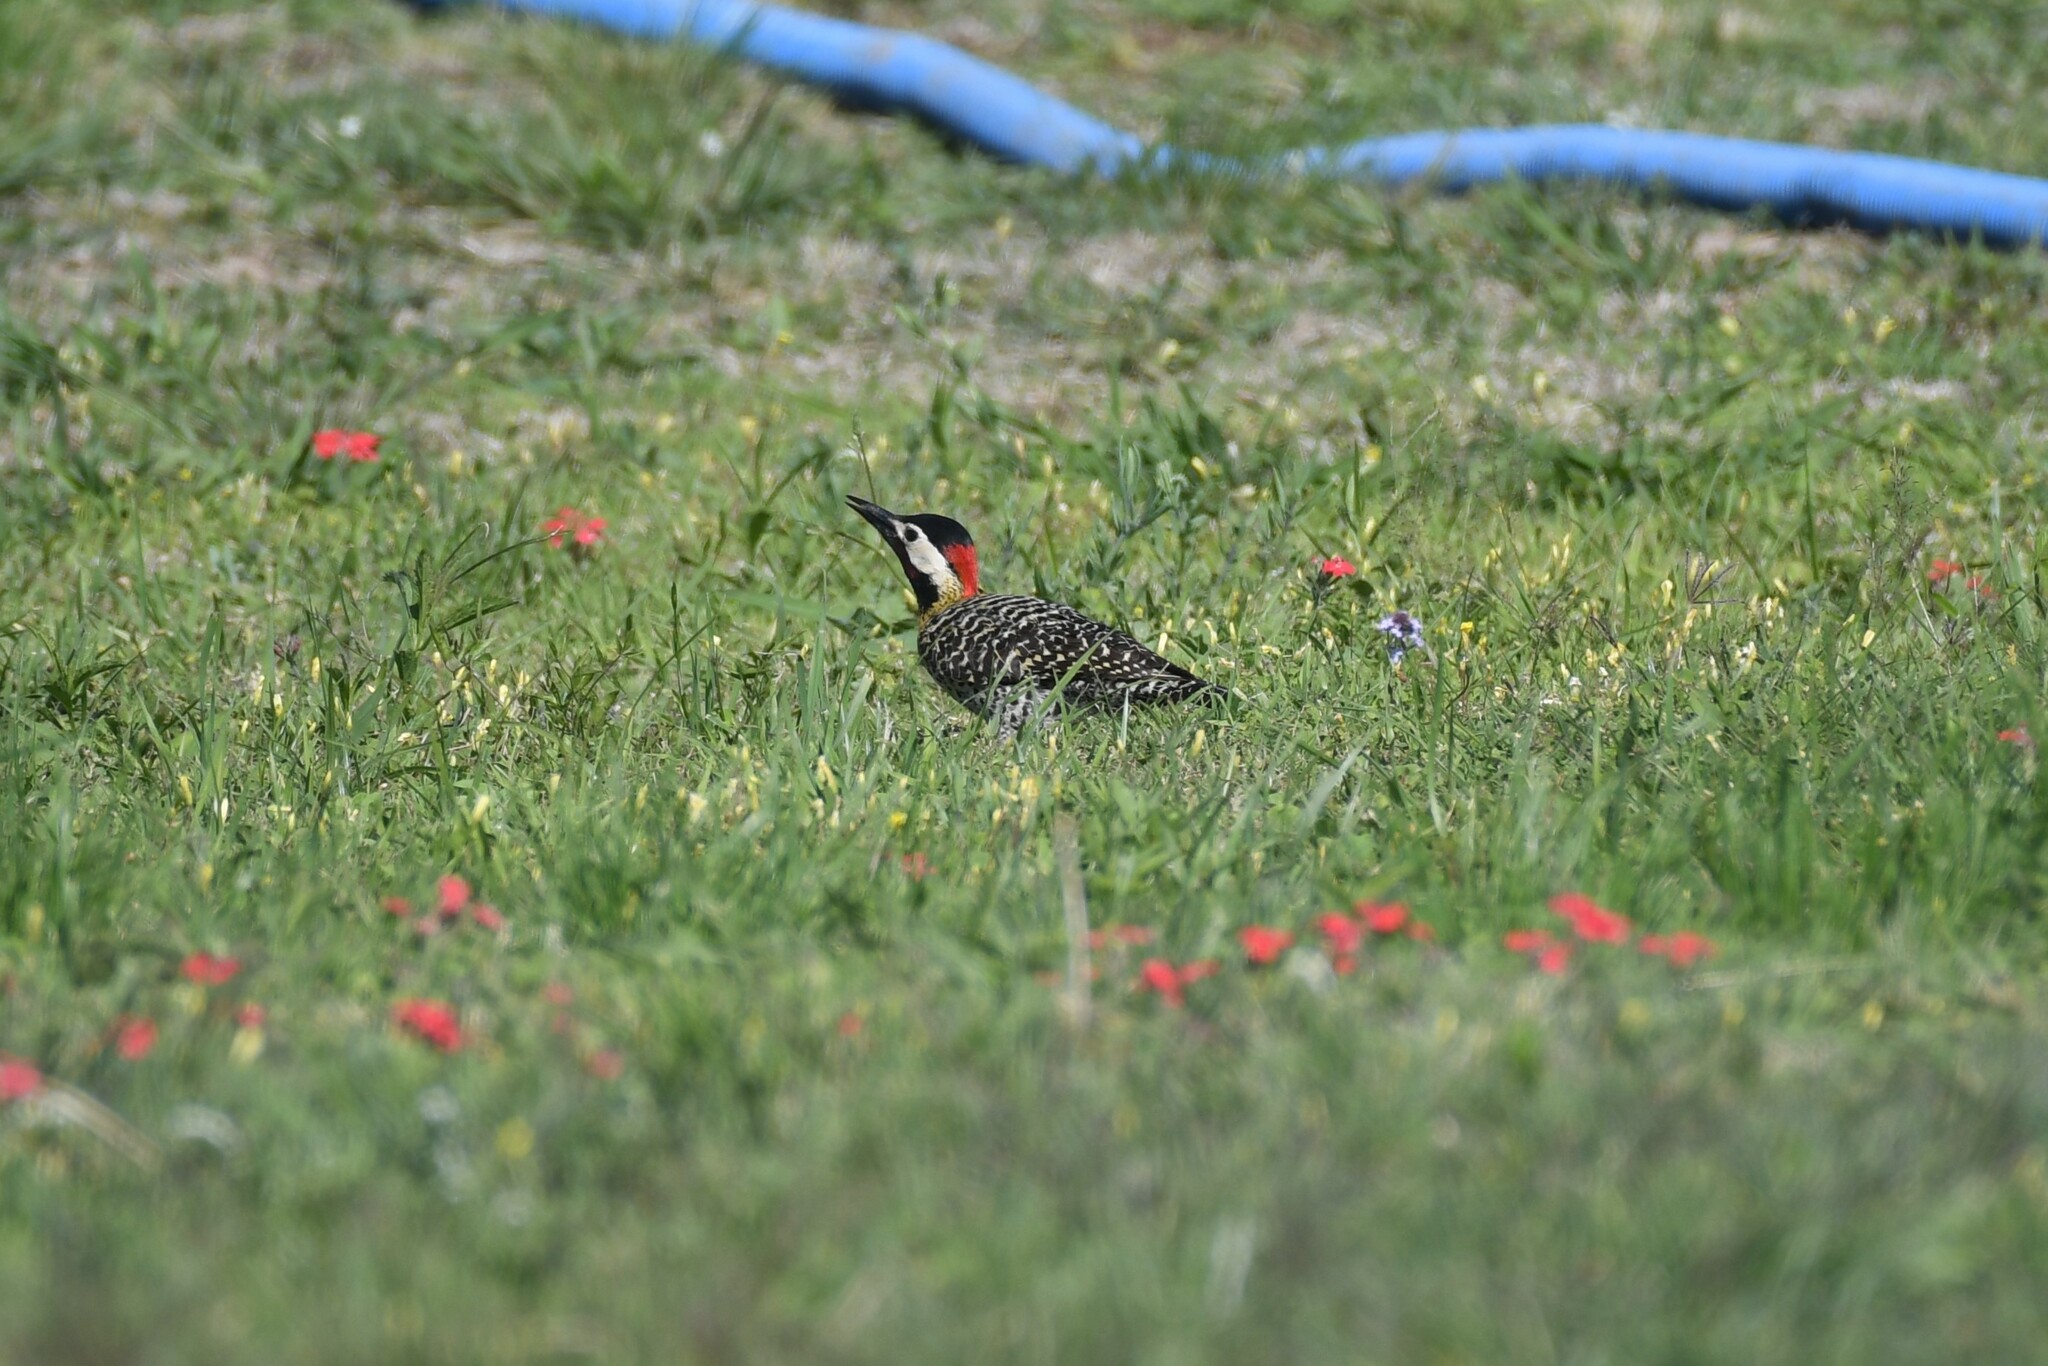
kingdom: Animalia
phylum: Chordata
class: Aves
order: Piciformes
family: Picidae
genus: Colaptes
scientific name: Colaptes melanochloros
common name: Green-barred woodpecker
